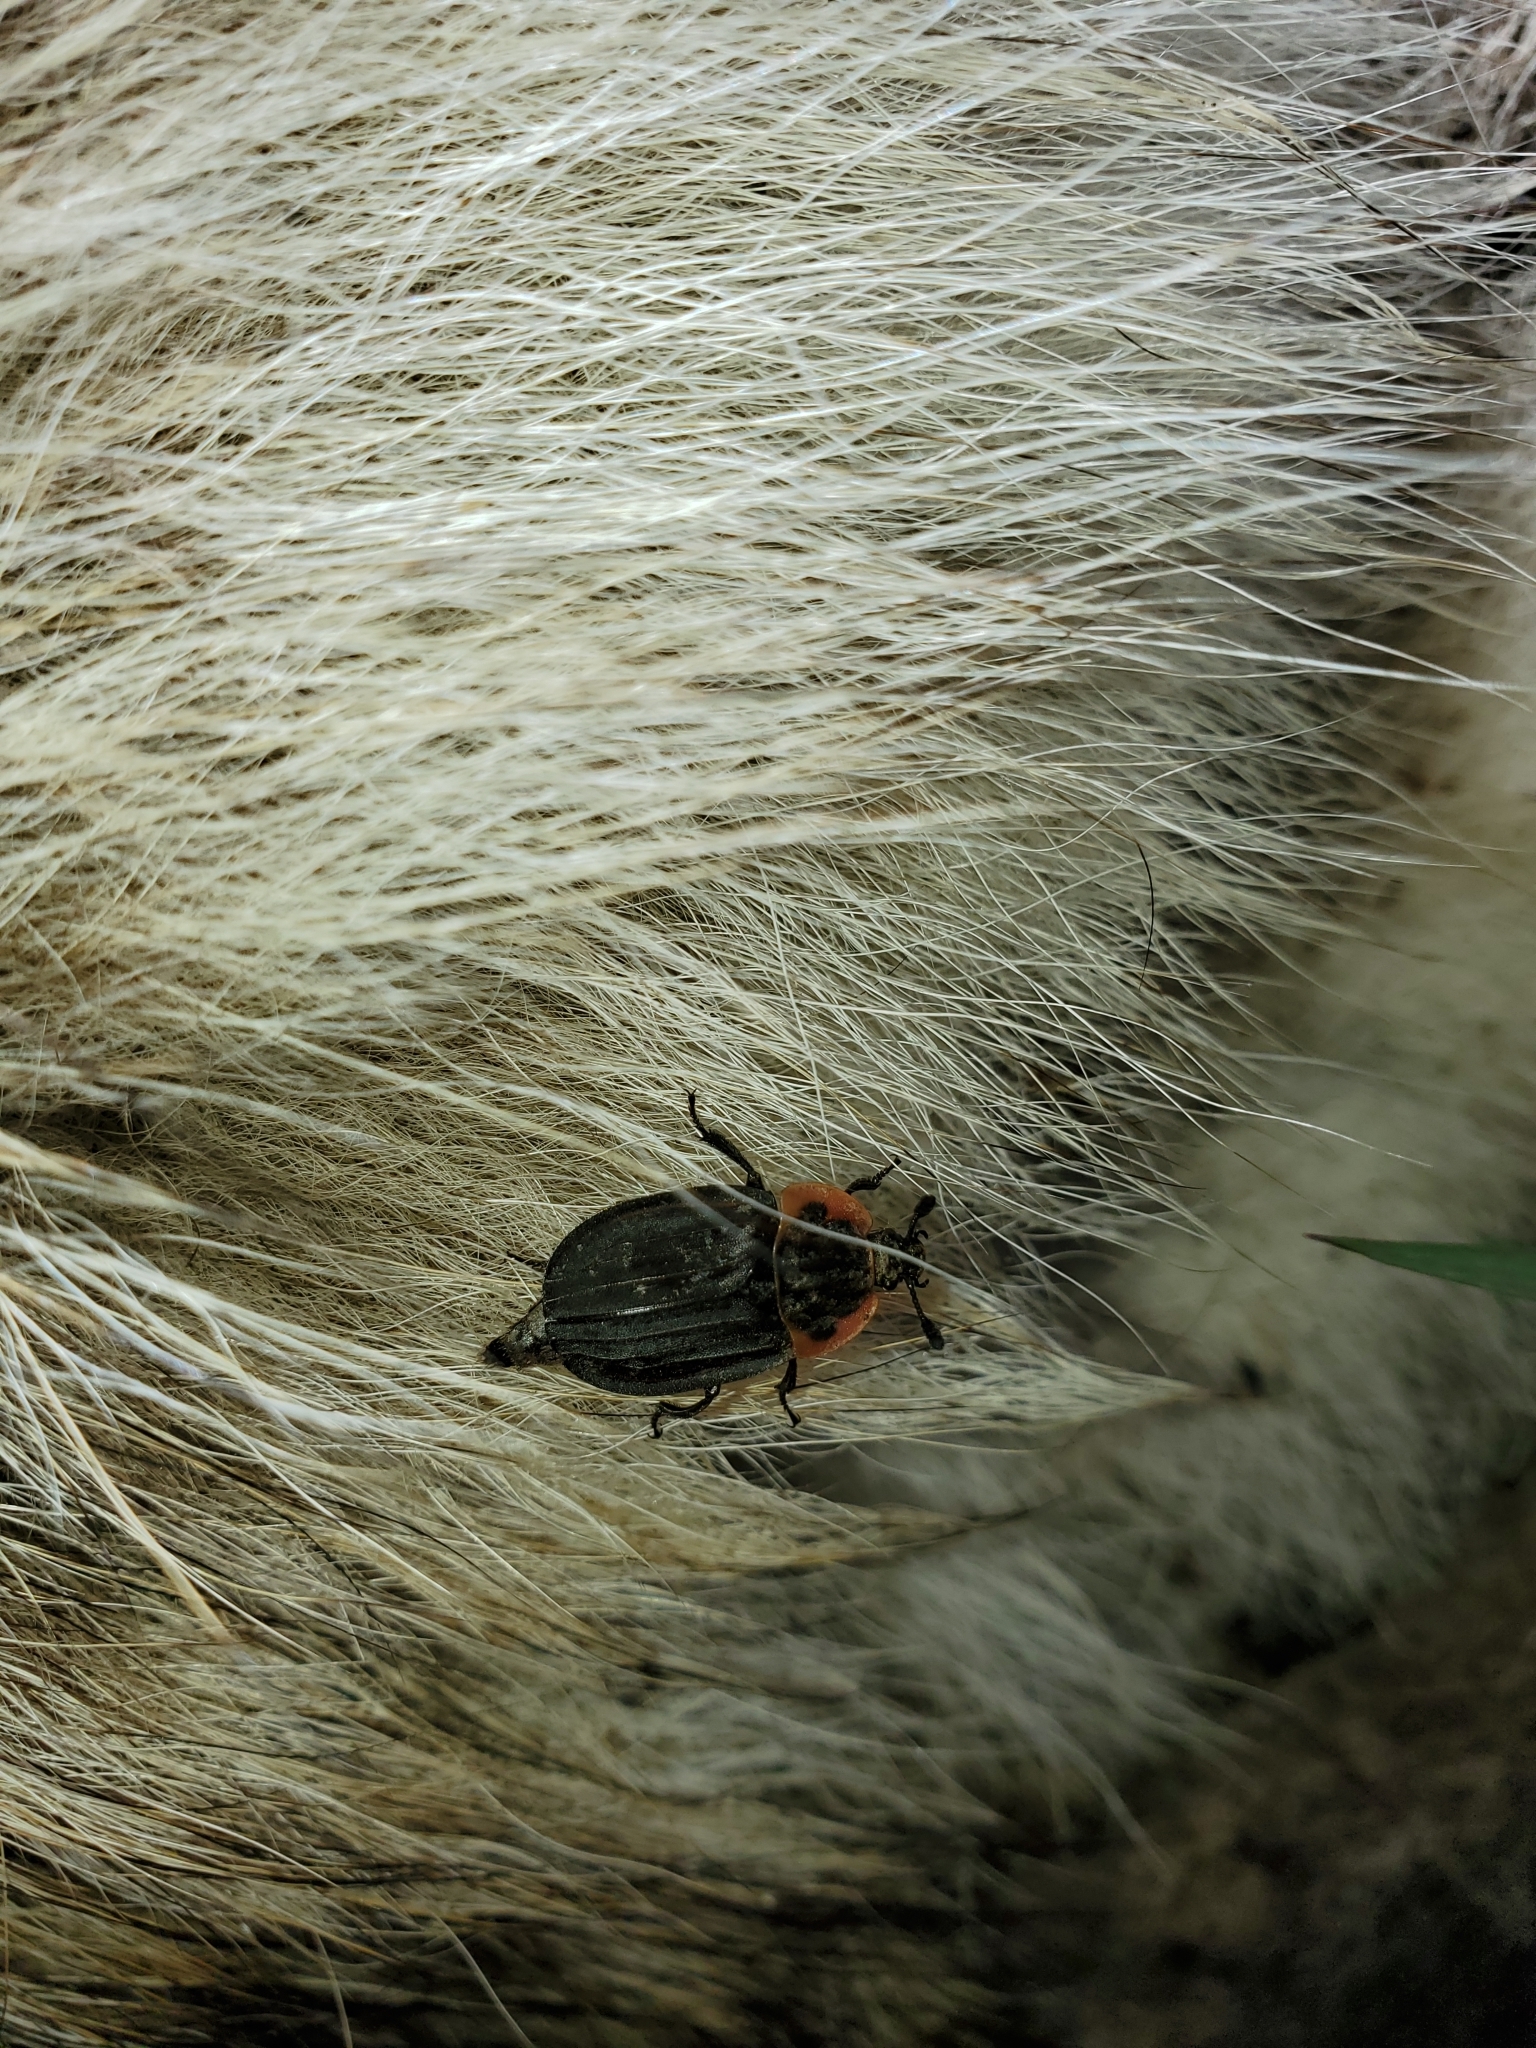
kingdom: Animalia
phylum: Arthropoda
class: Insecta
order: Coleoptera
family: Staphylinidae
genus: Oiceoptoma
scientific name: Oiceoptoma noveboracense
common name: Margined carrion beetle
